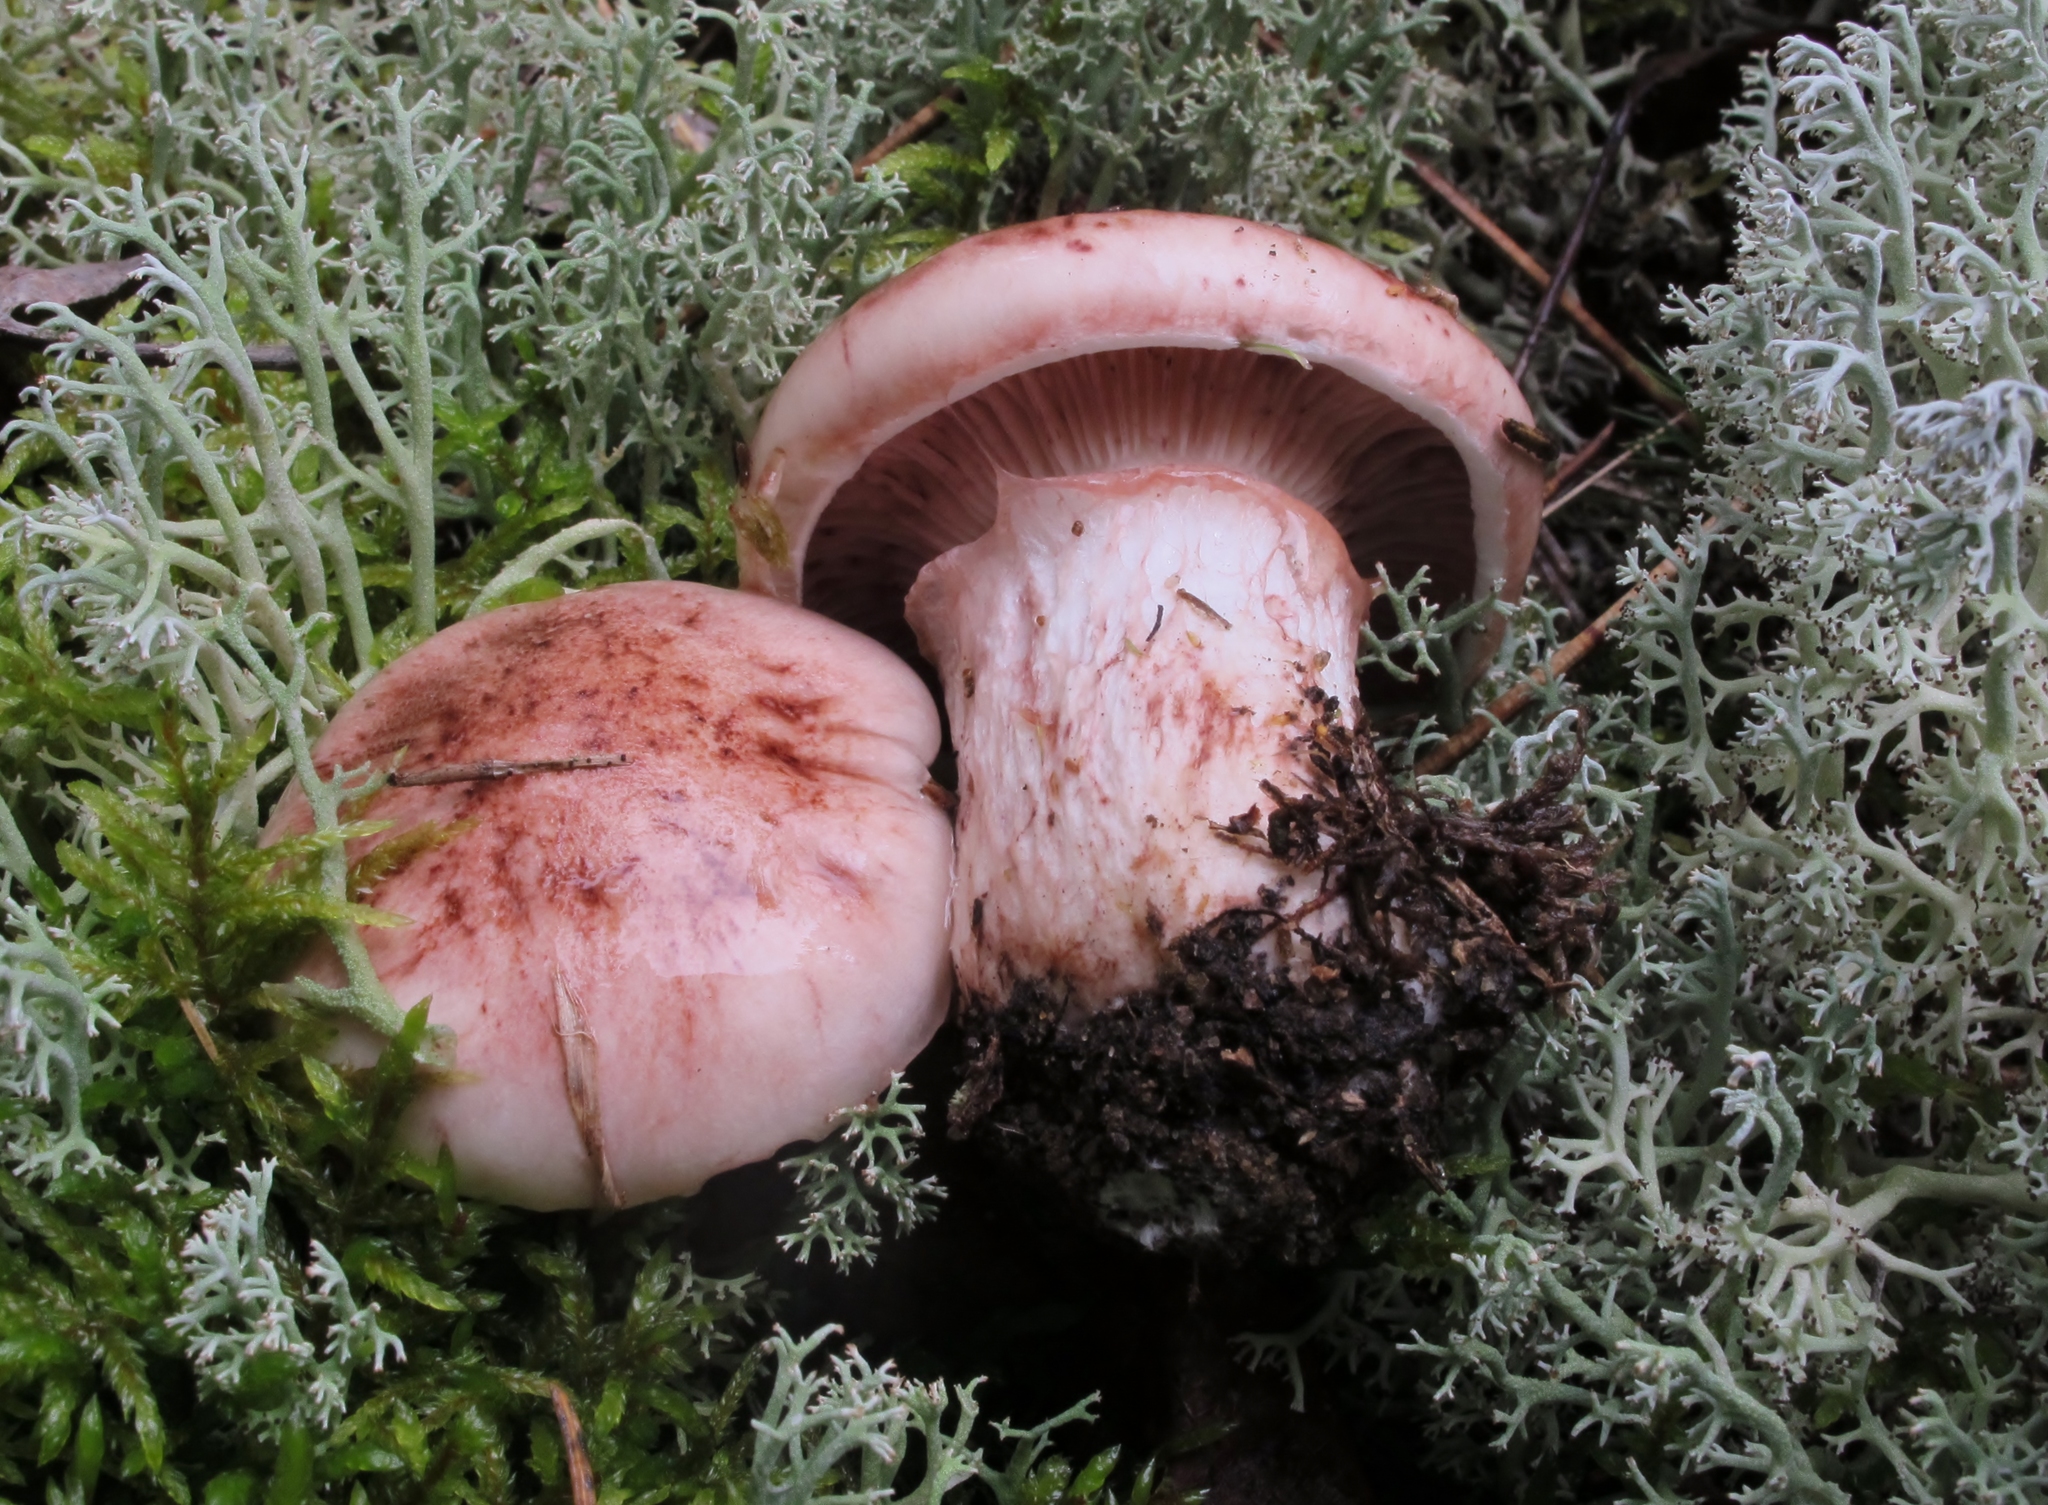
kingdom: Fungi
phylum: Basidiomycota
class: Agaricomycetes
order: Agaricales
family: Hygrophoraceae
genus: Hygrophorus
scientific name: Hygrophorus purpurascens
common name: Veiled purple waxcap
